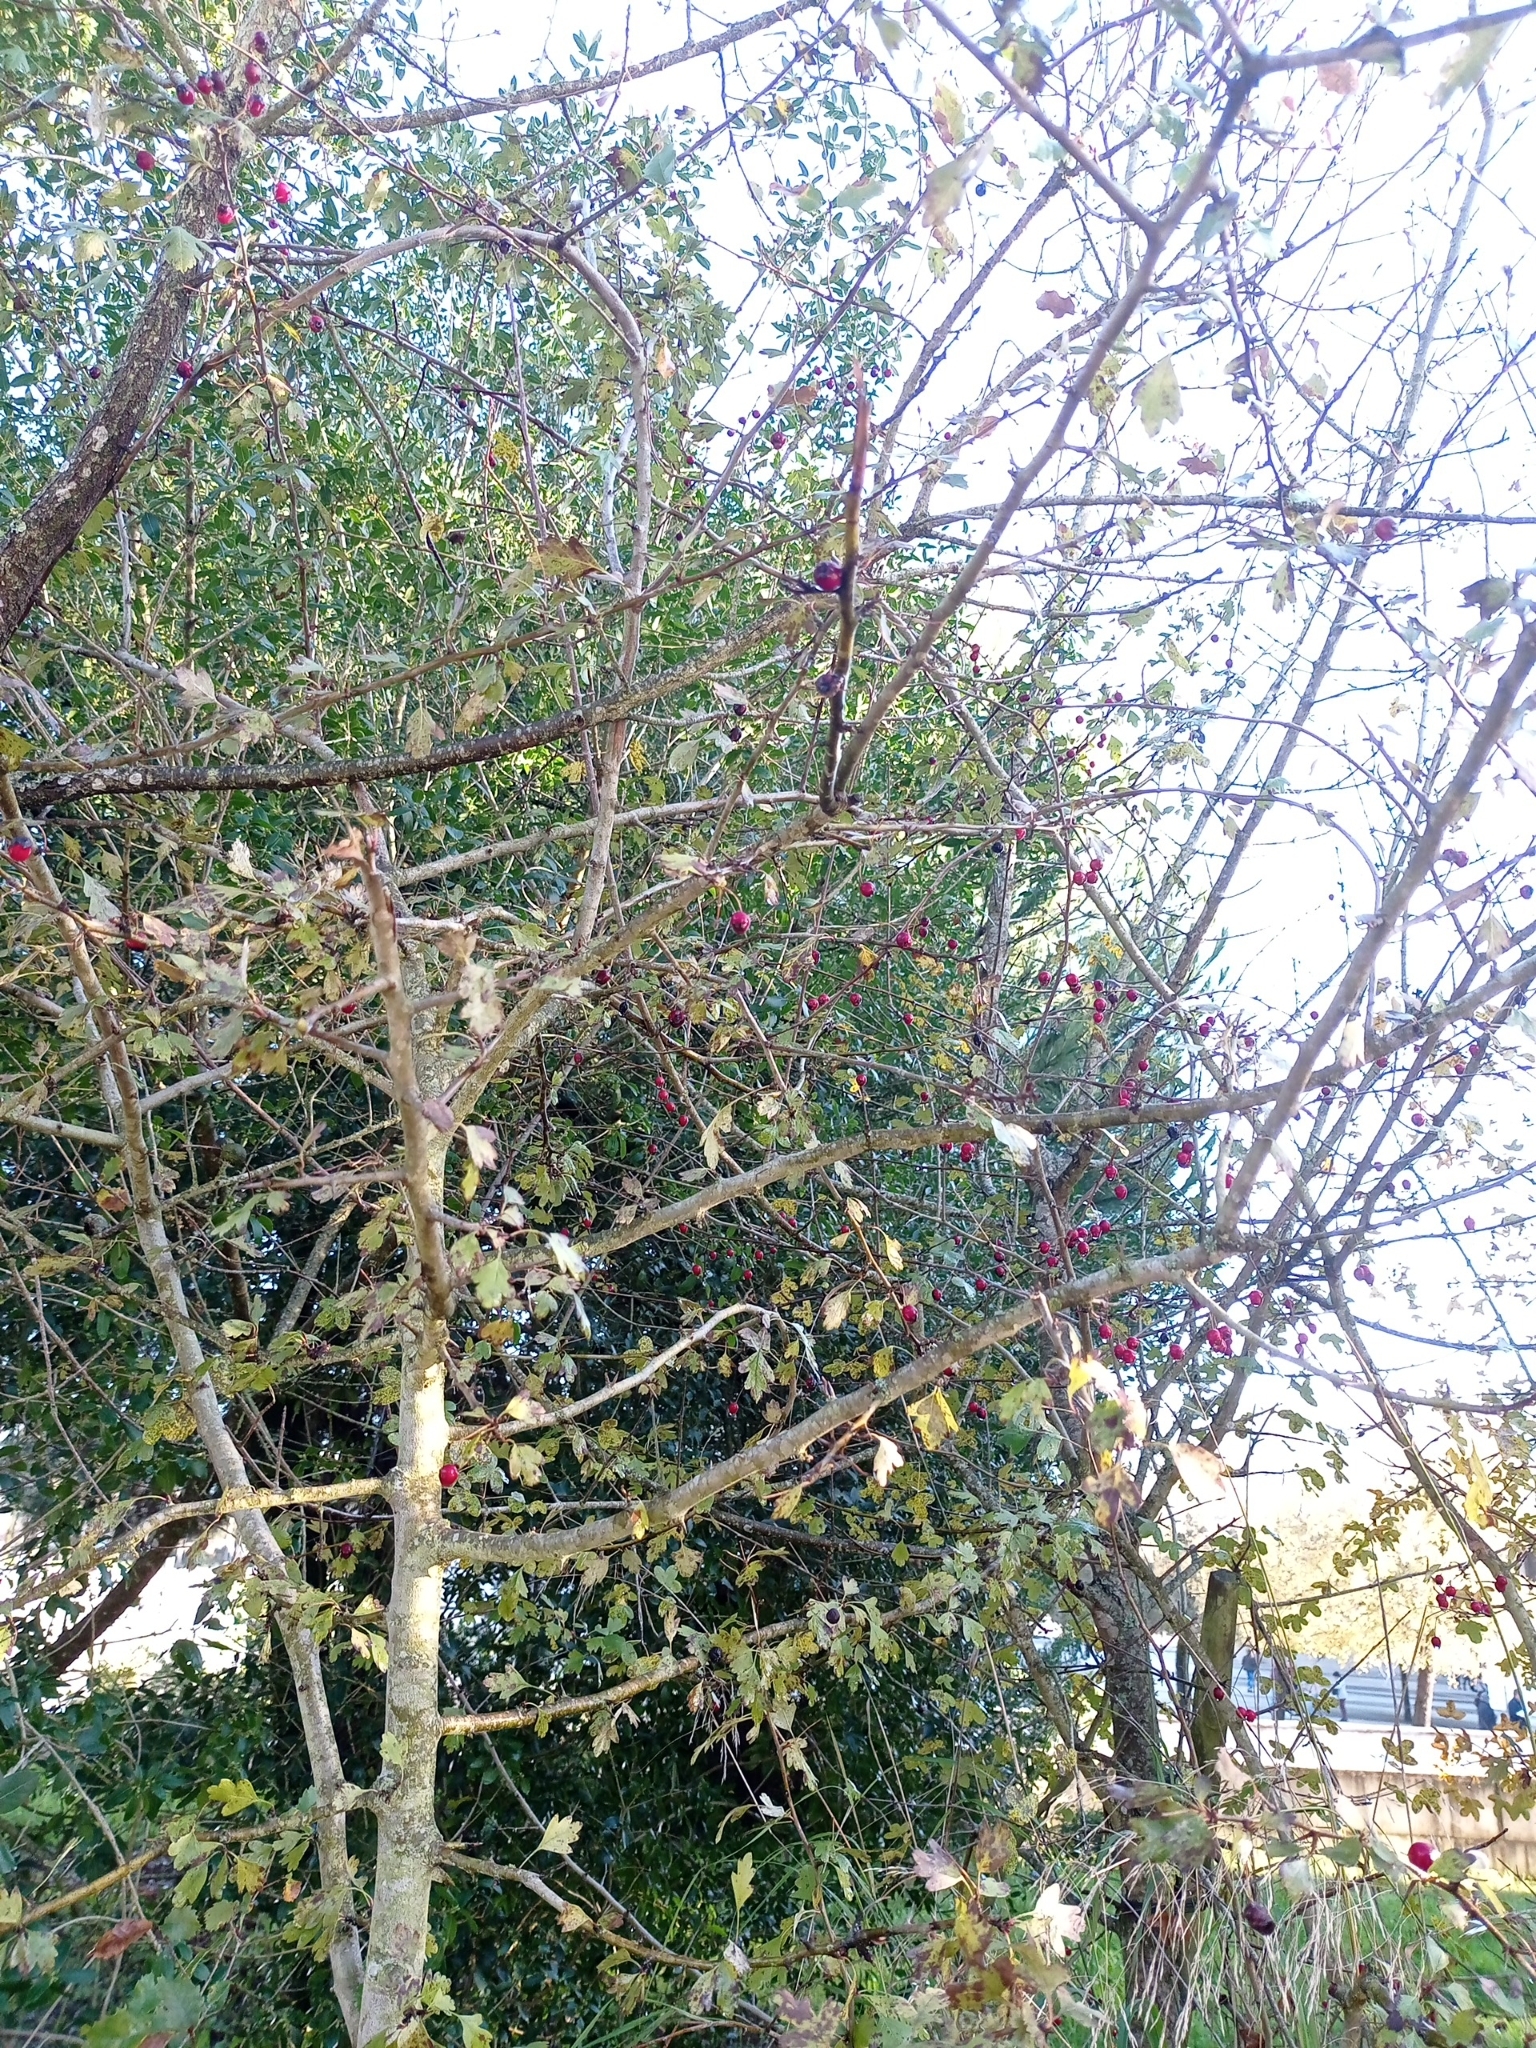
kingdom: Plantae
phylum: Tracheophyta
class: Magnoliopsida
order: Rosales
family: Rosaceae
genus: Crataegus
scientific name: Crataegus monogyna
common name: Hawthorn
